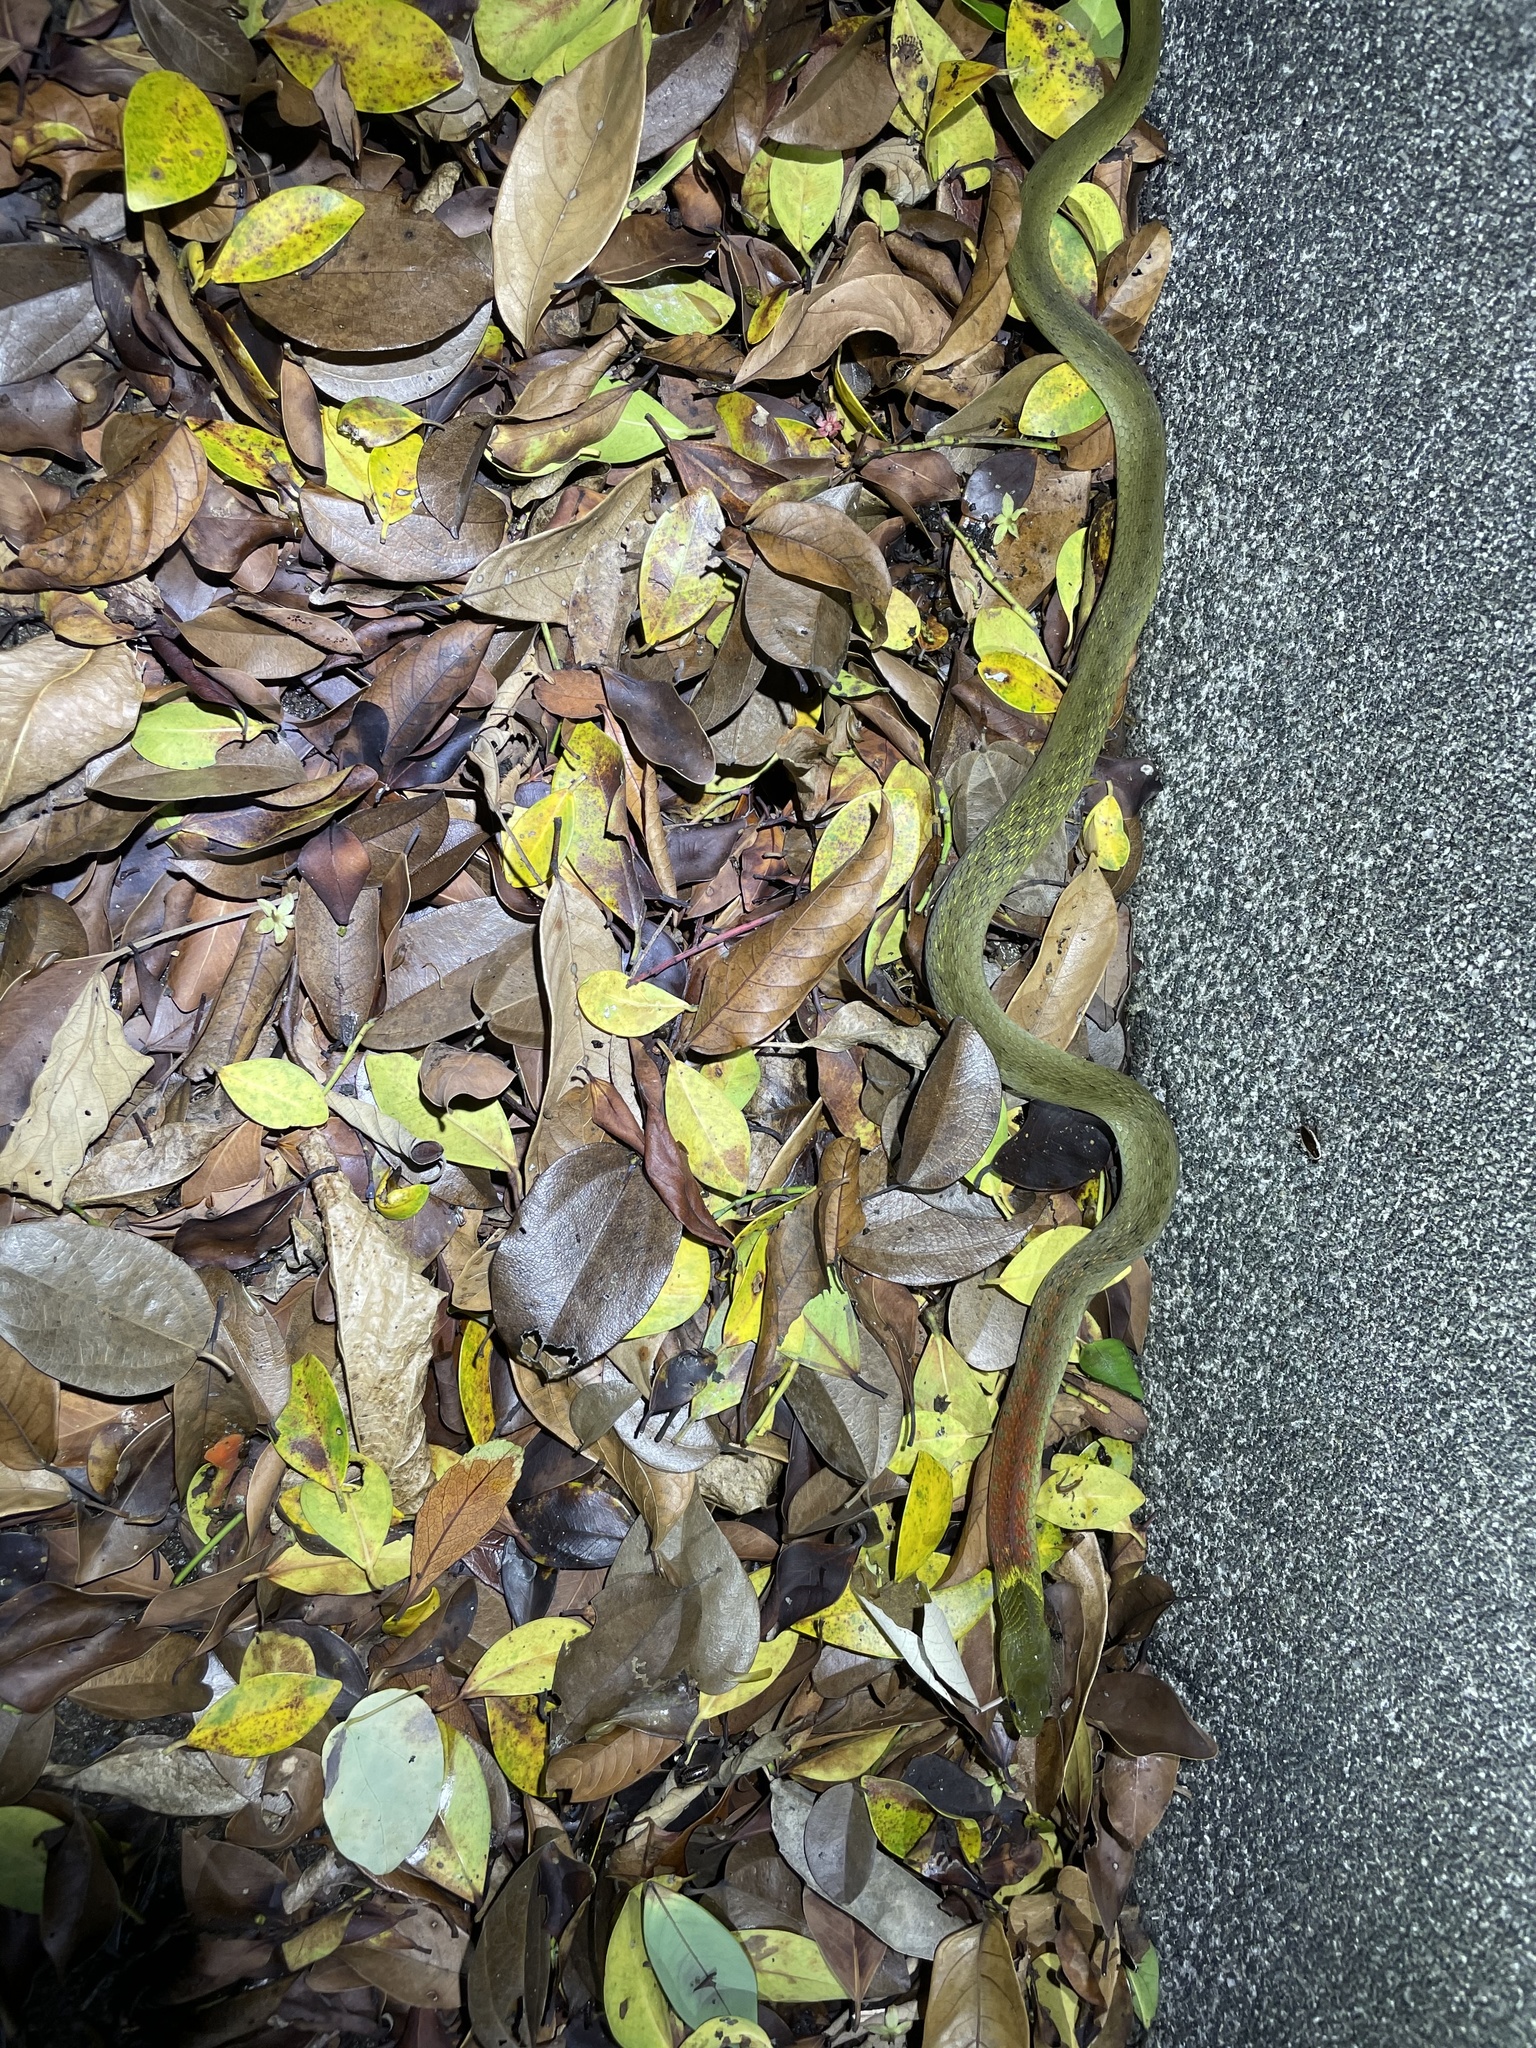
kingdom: Animalia
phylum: Chordata
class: Squamata
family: Colubridae
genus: Rhabdophis
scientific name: Rhabdophis helleri
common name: Heller’s red-necked keelback
